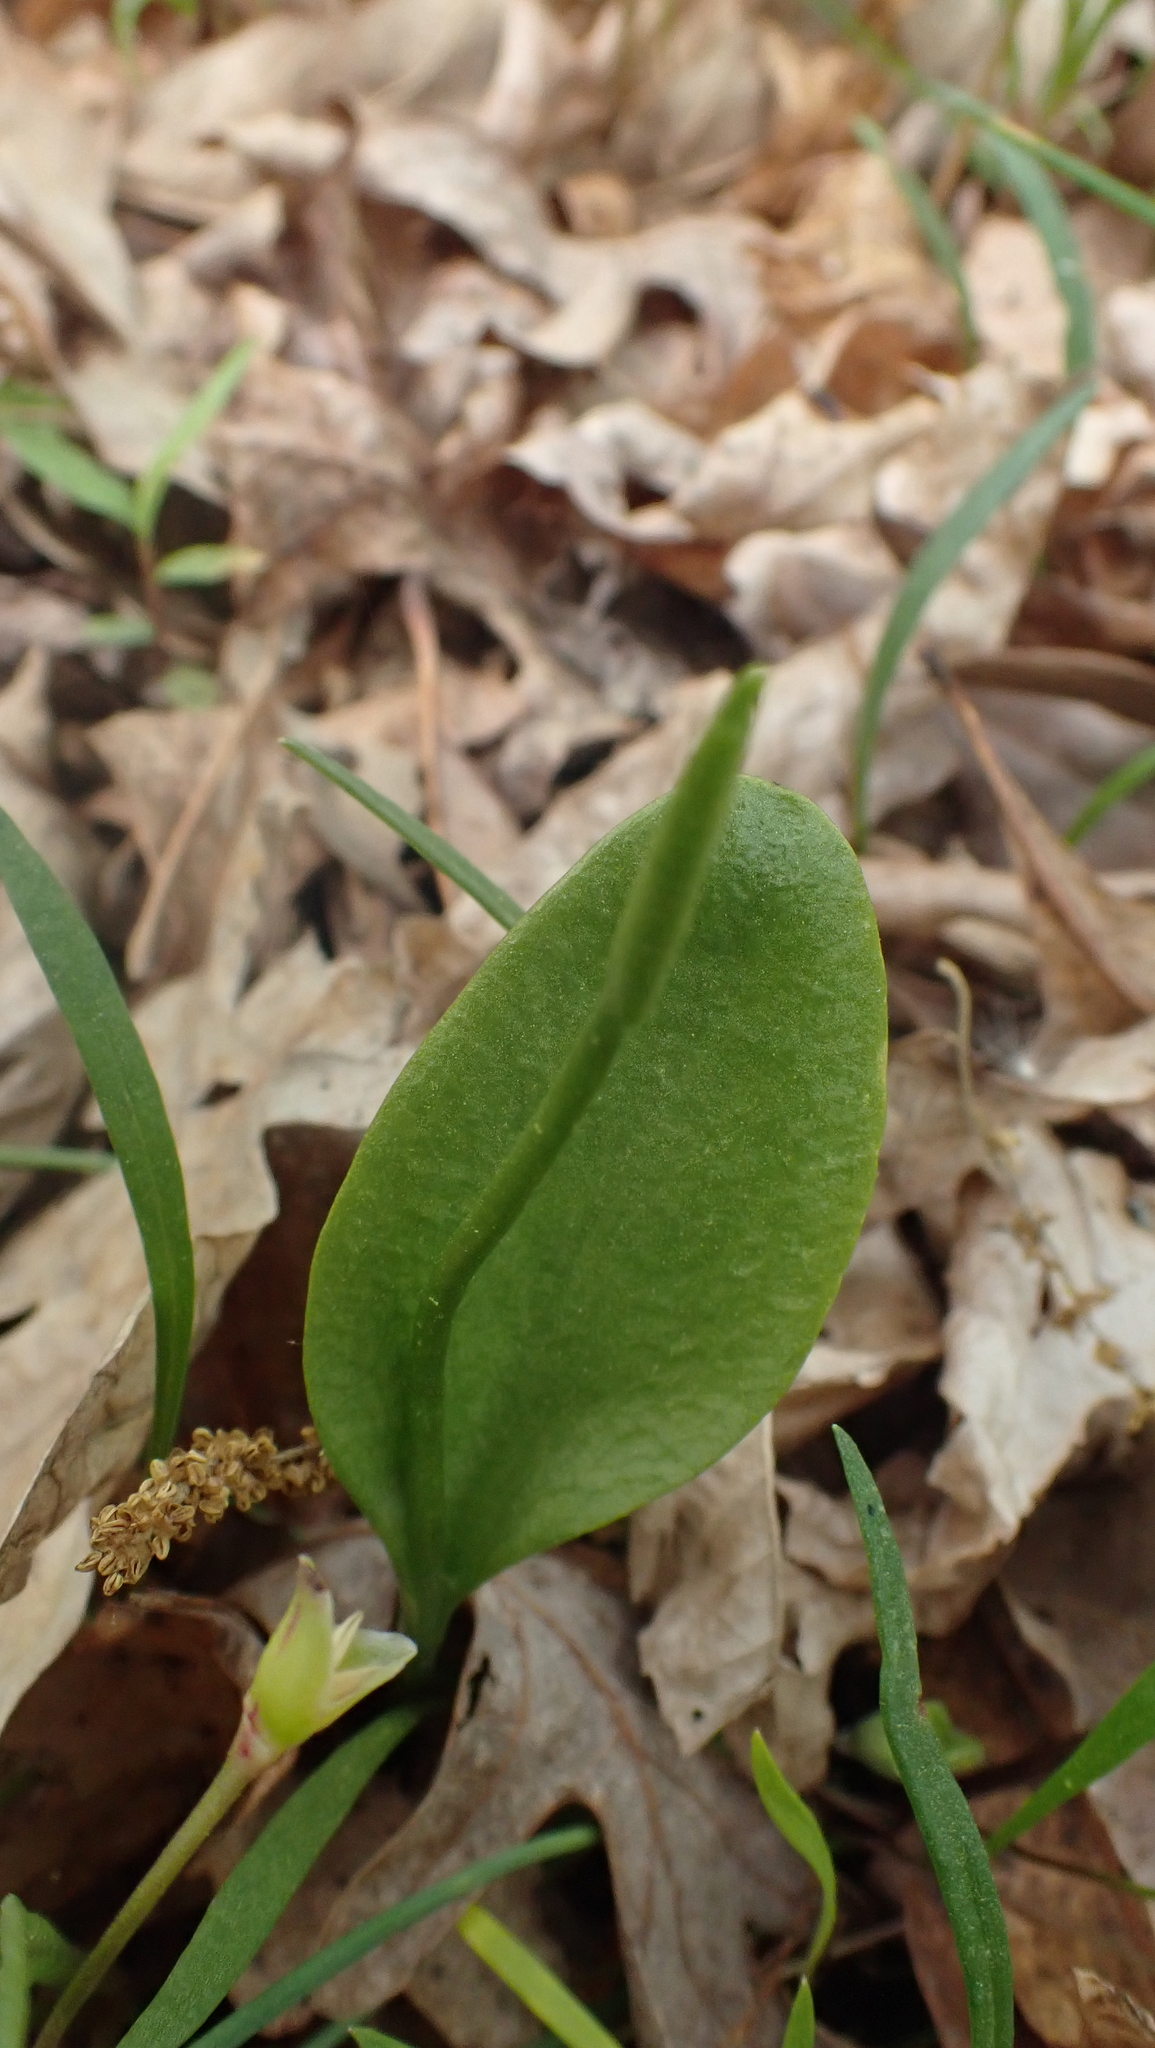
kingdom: Plantae
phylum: Tracheophyta
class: Polypodiopsida
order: Ophioglossales
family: Ophioglossaceae
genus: Ophioglossum
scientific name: Ophioglossum vulgatum
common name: Adder's-tongue
